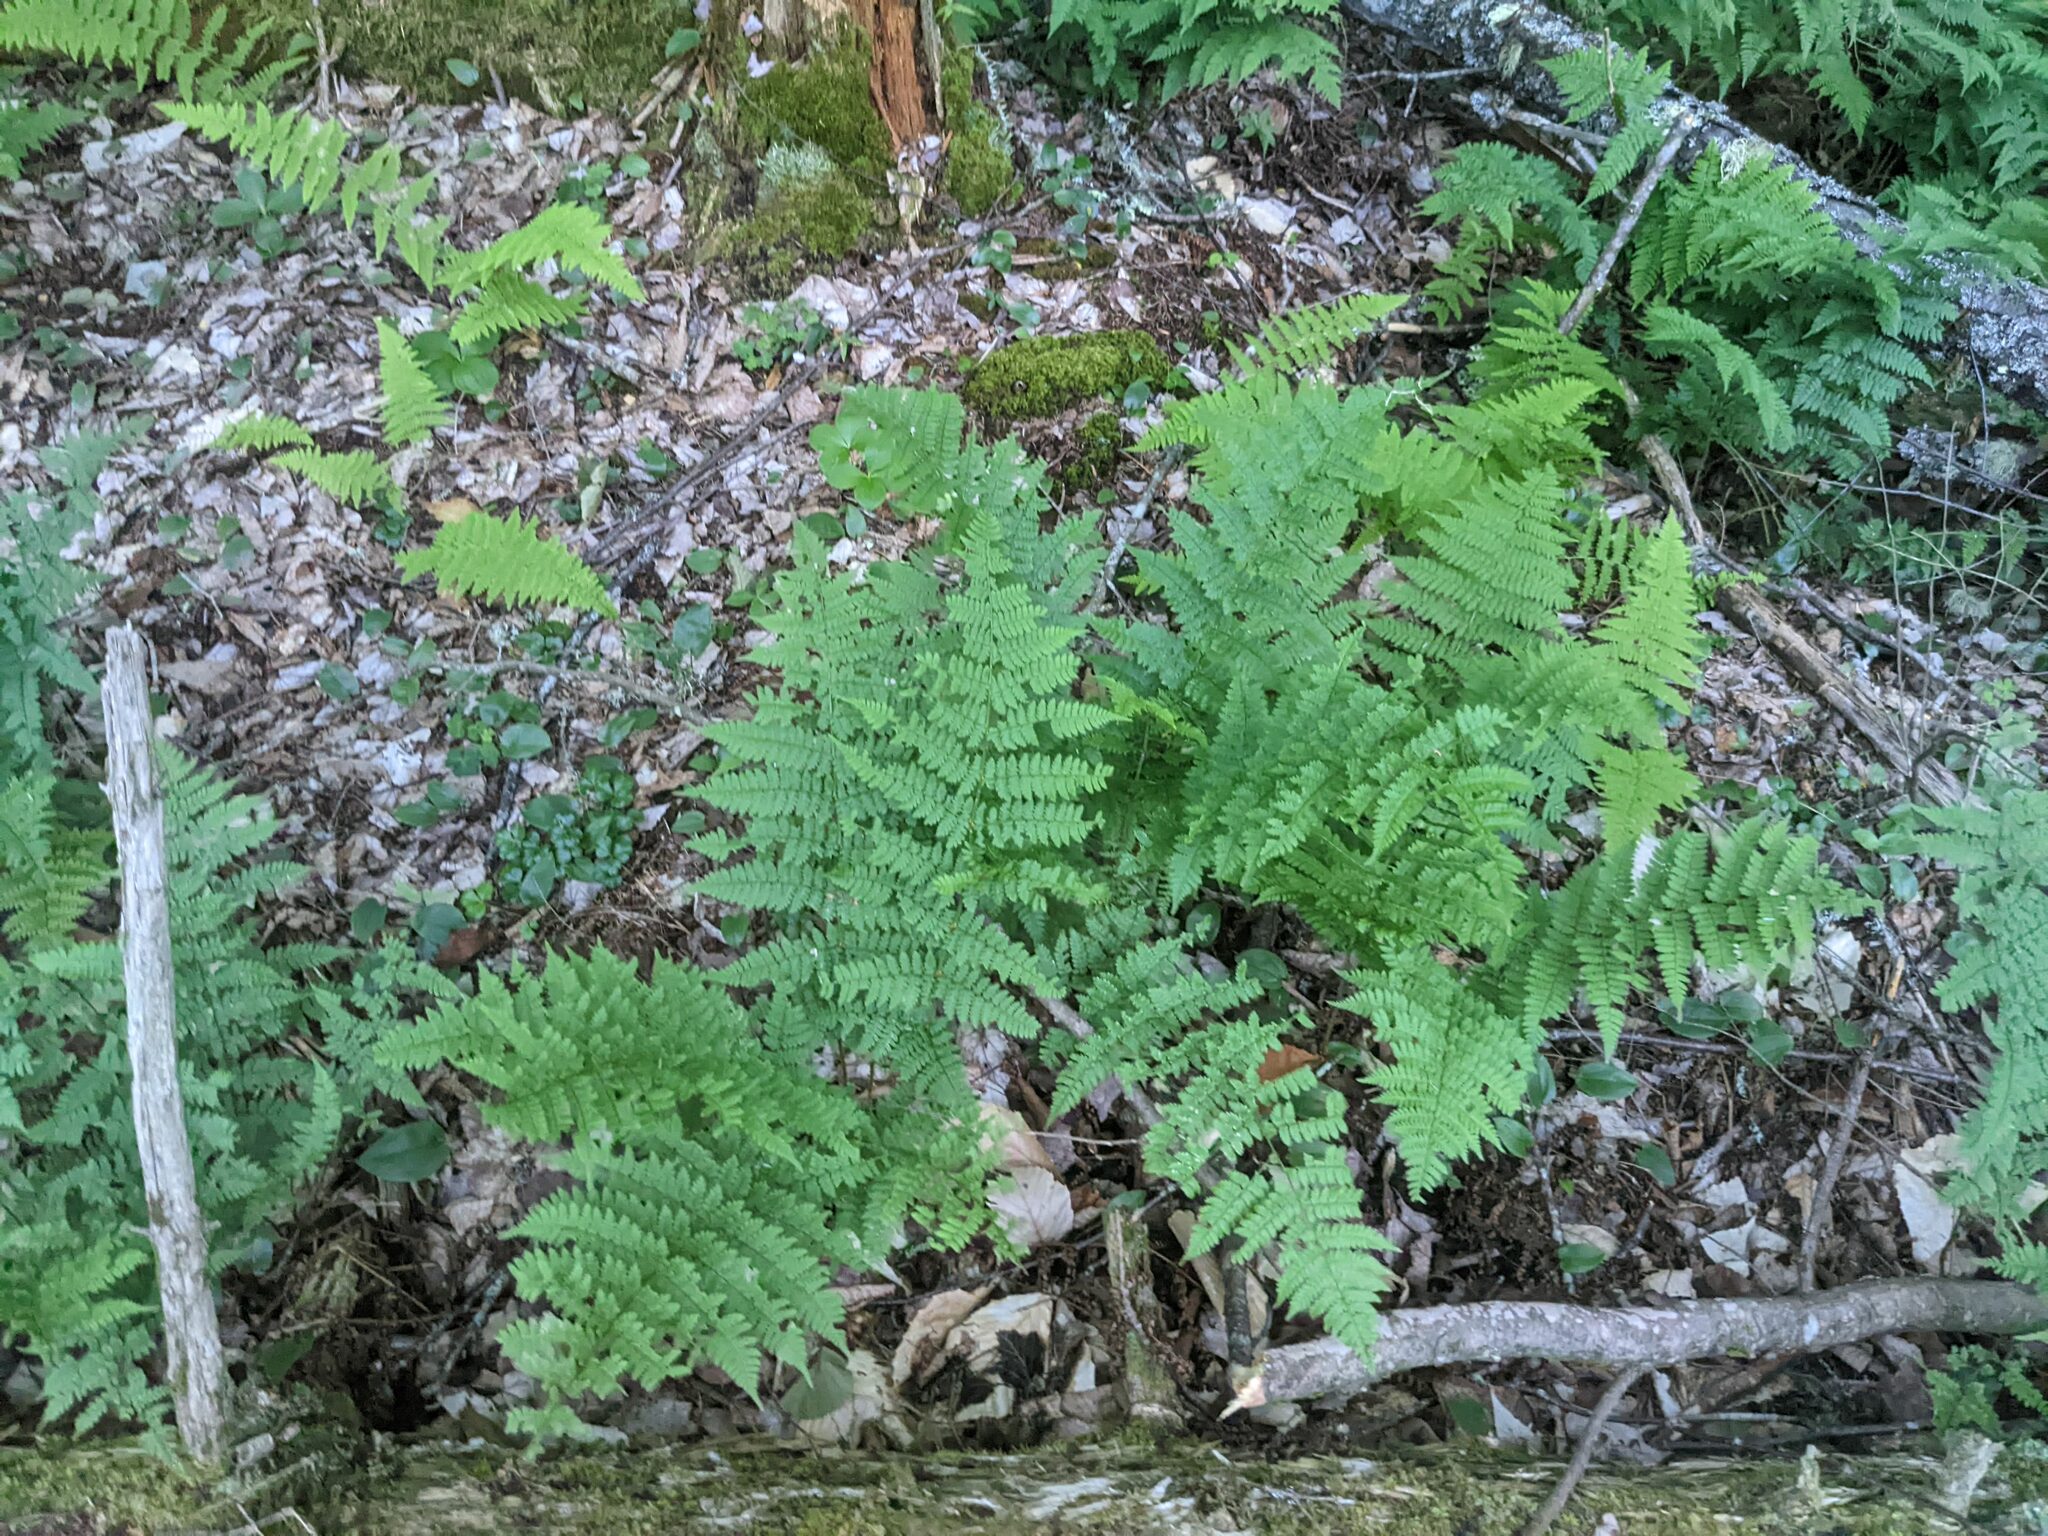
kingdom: Plantae
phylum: Tracheophyta
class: Polypodiopsida
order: Polypodiales
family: Dryopteridaceae
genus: Dryopteris
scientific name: Dryopteris intermedia
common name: Evergreen wood fern
